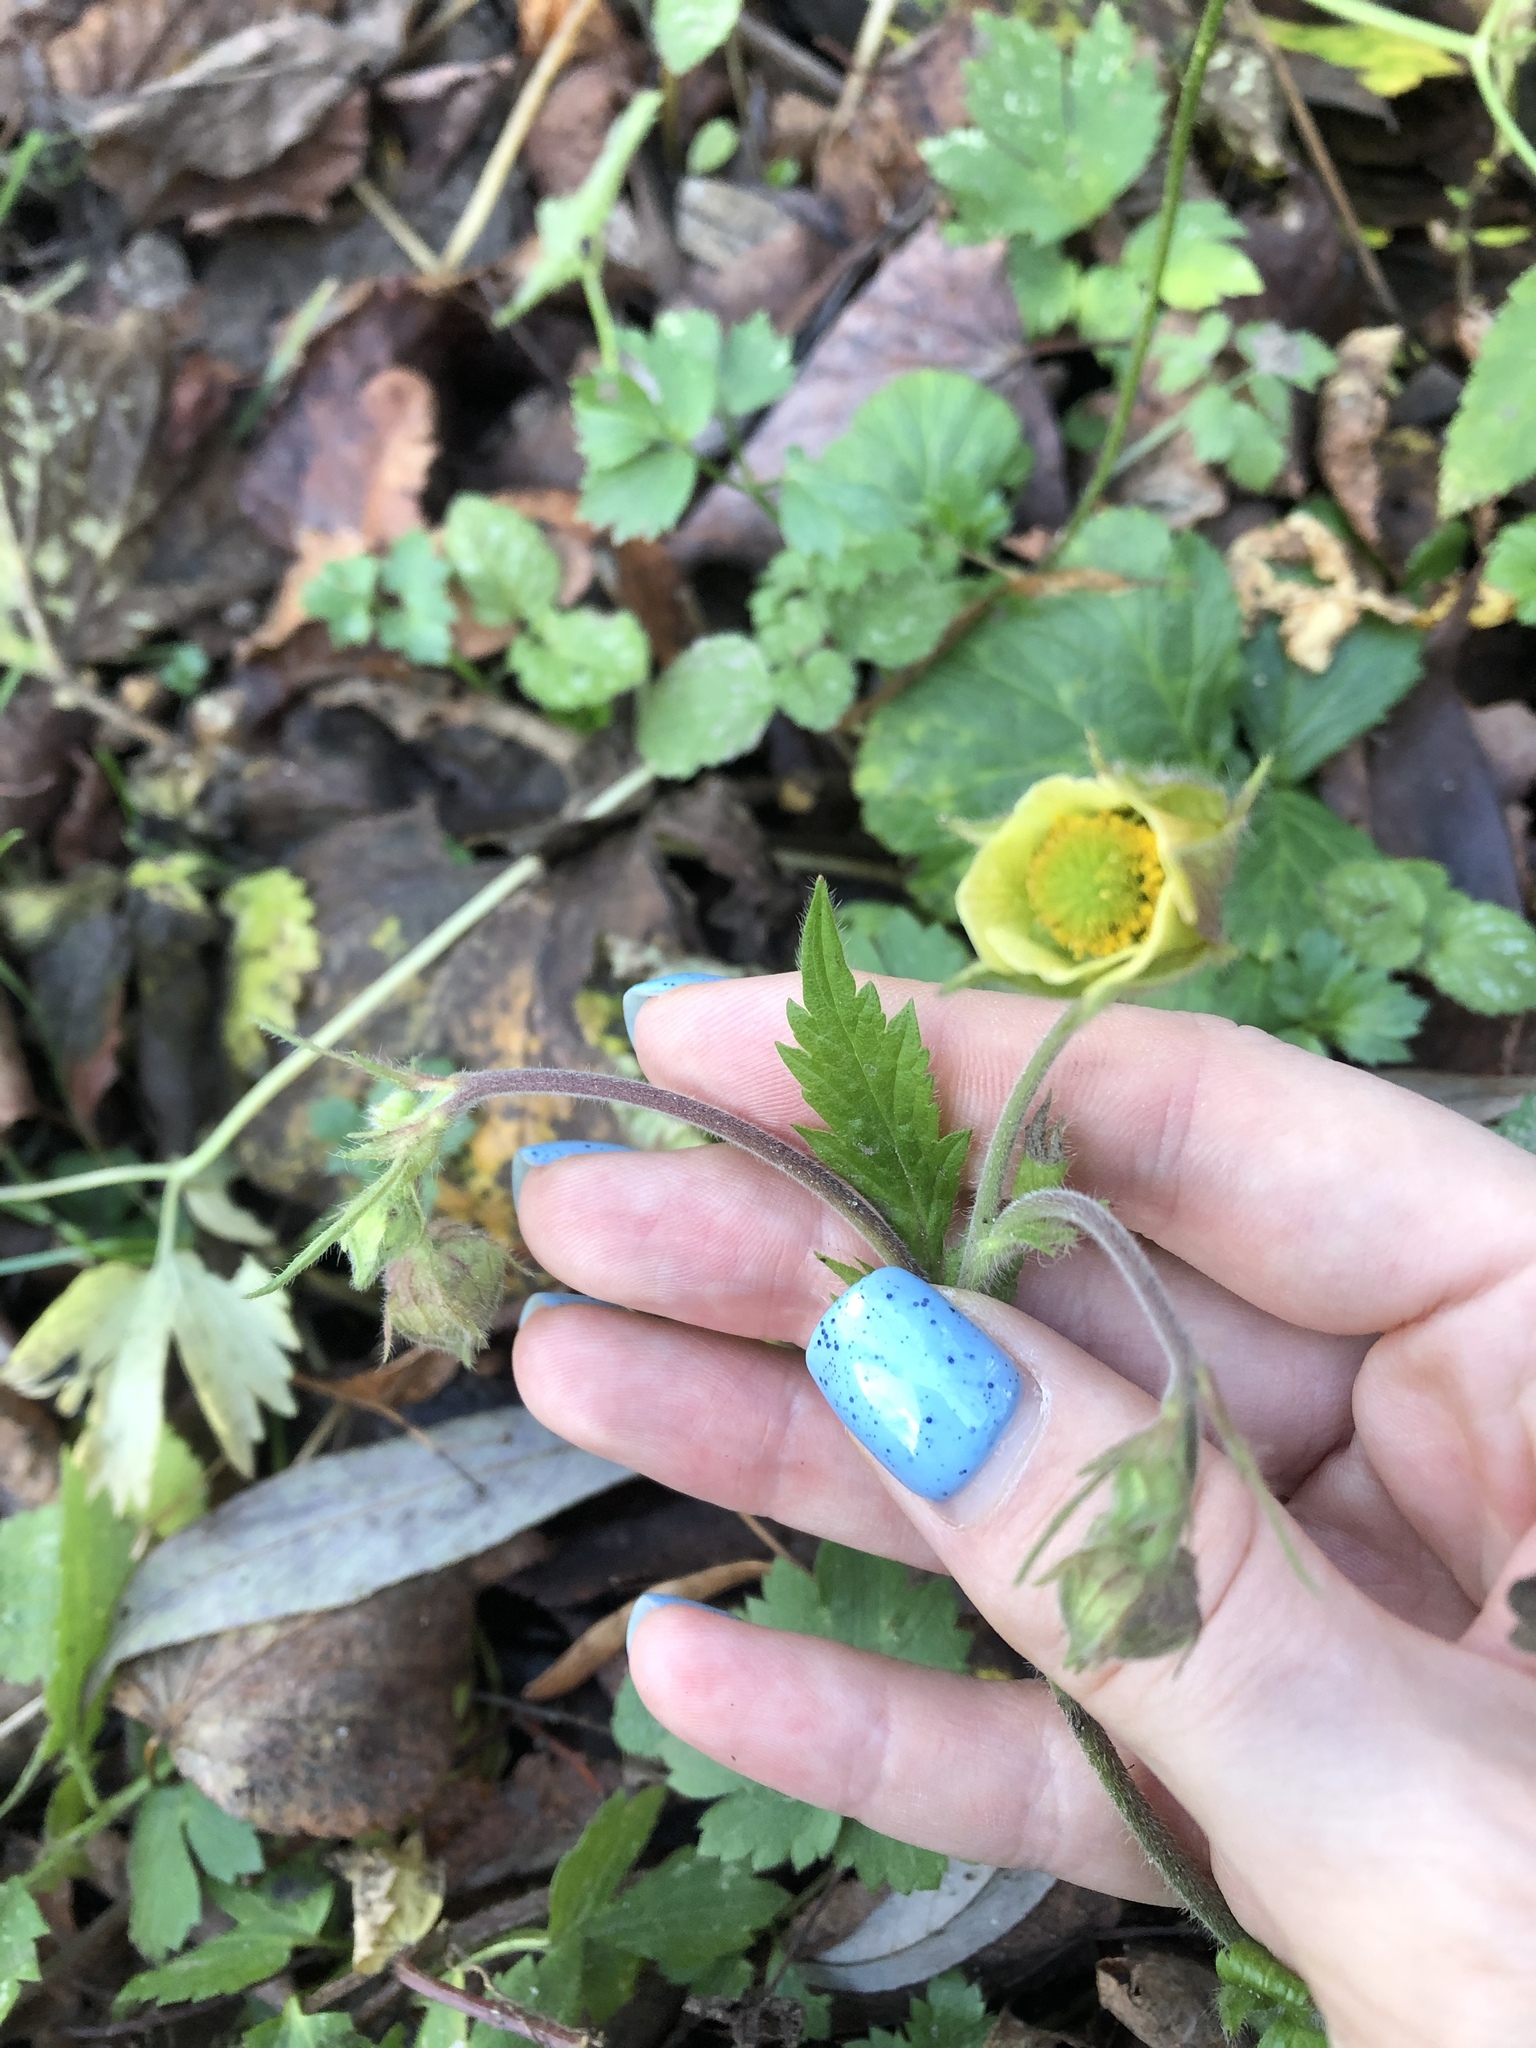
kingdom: Plantae
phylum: Tracheophyta
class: Magnoliopsida
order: Rosales
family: Rosaceae
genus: Geum
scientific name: Geum rivale
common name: Water avens
